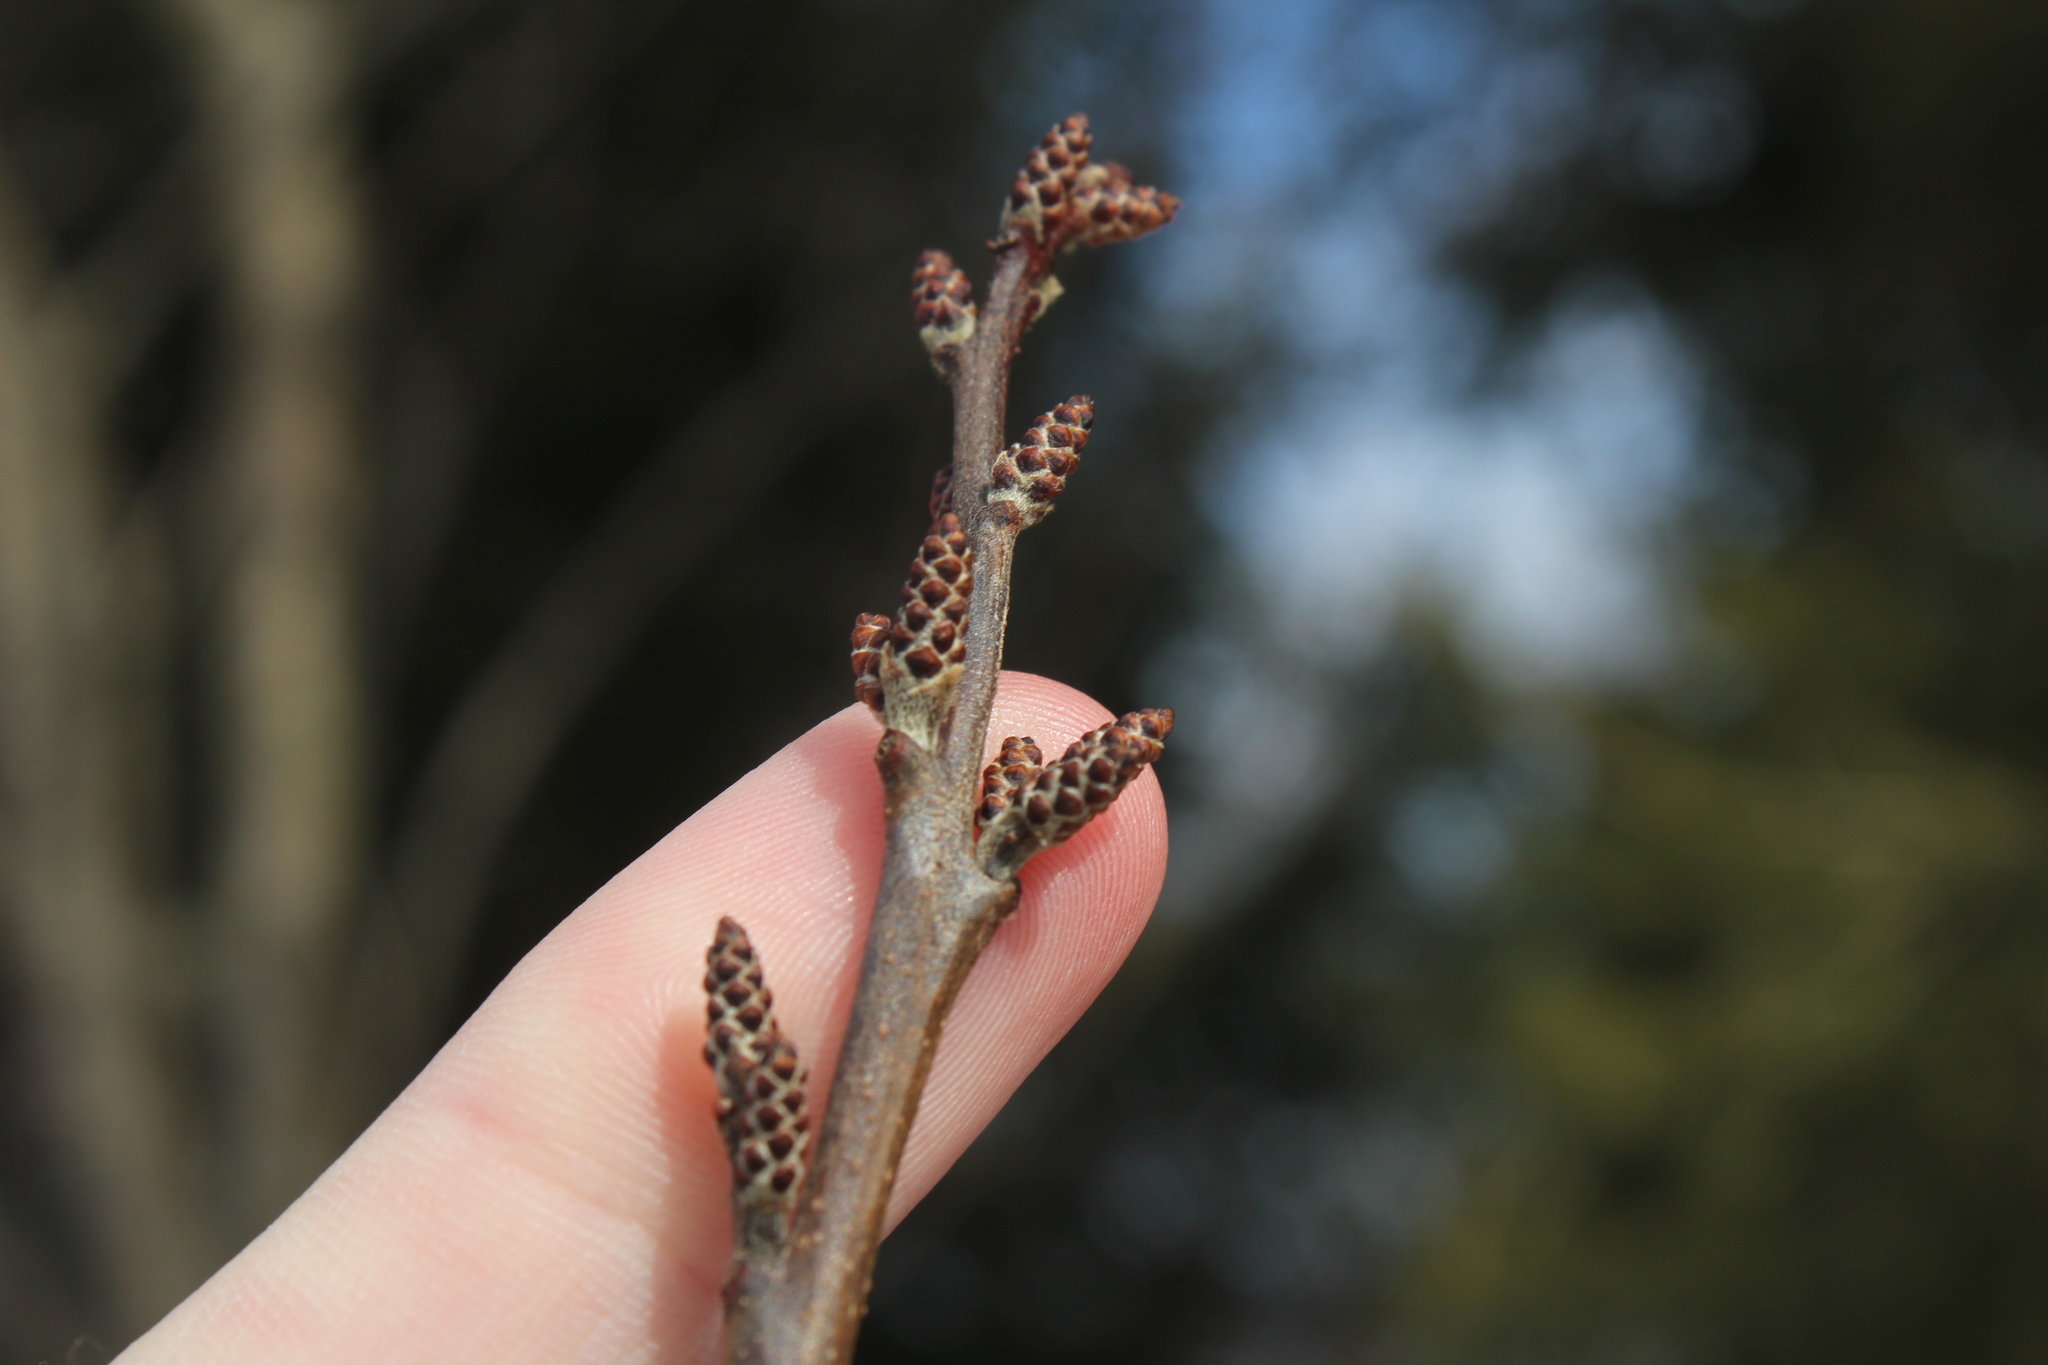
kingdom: Plantae
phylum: Tracheophyta
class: Magnoliopsida
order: Sapindales
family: Anacardiaceae
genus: Rhus
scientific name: Rhus aromatica
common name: Aromatic sumac
